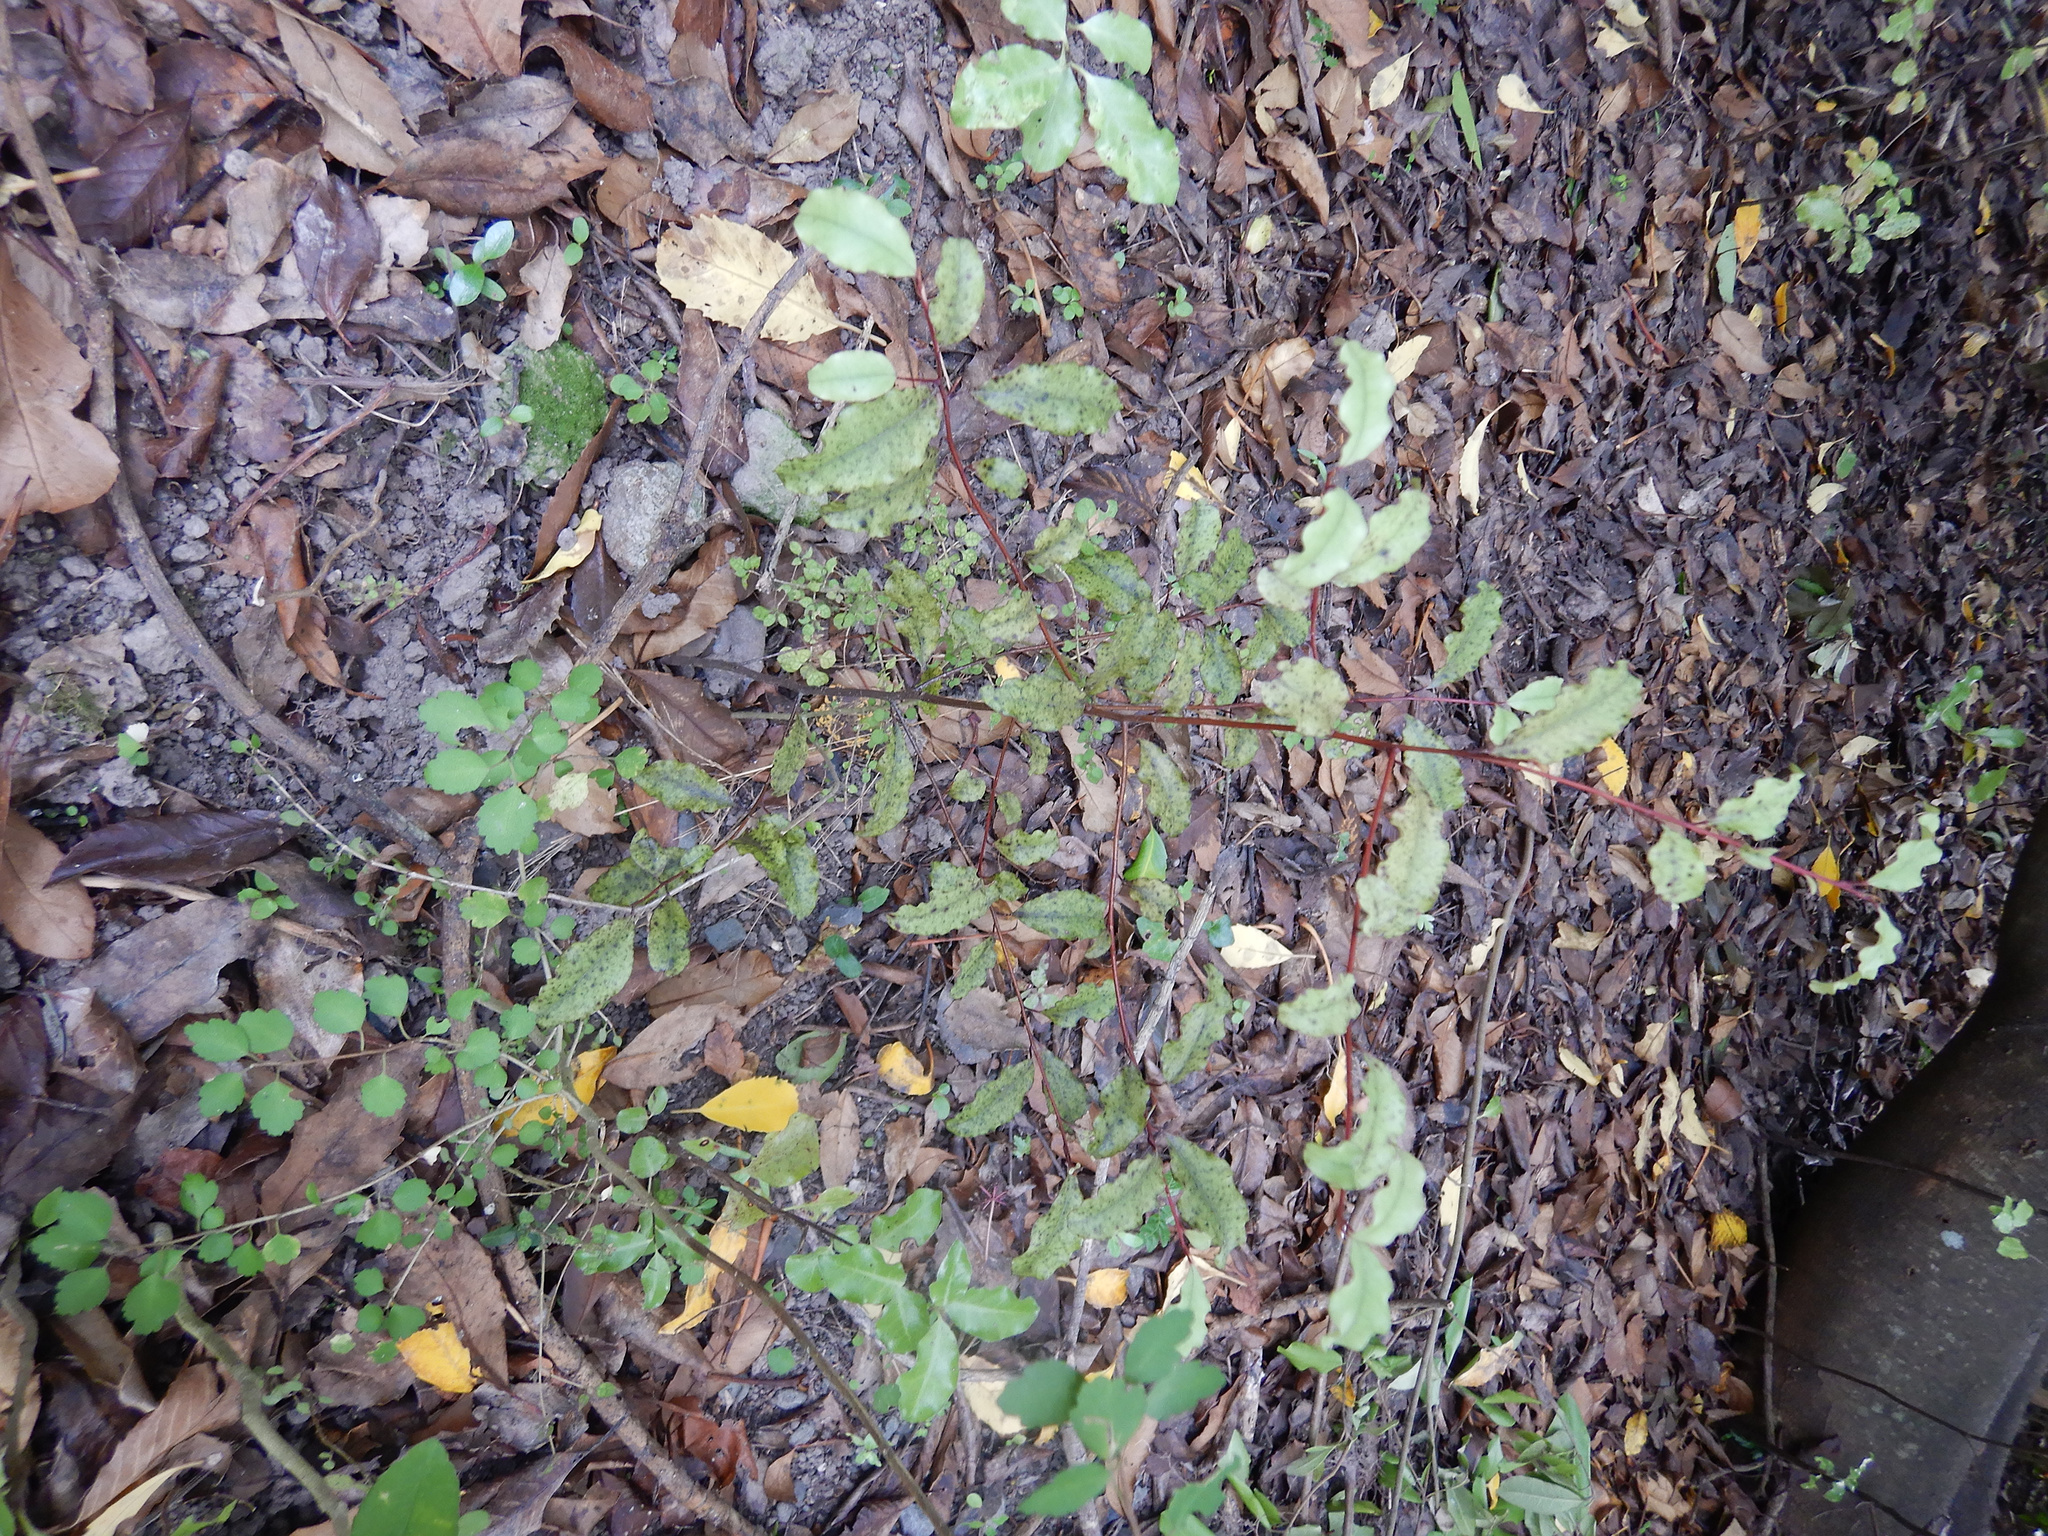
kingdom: Plantae
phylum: Tracheophyta
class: Magnoliopsida
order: Ericales
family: Primulaceae
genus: Myrsine
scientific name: Myrsine australis
